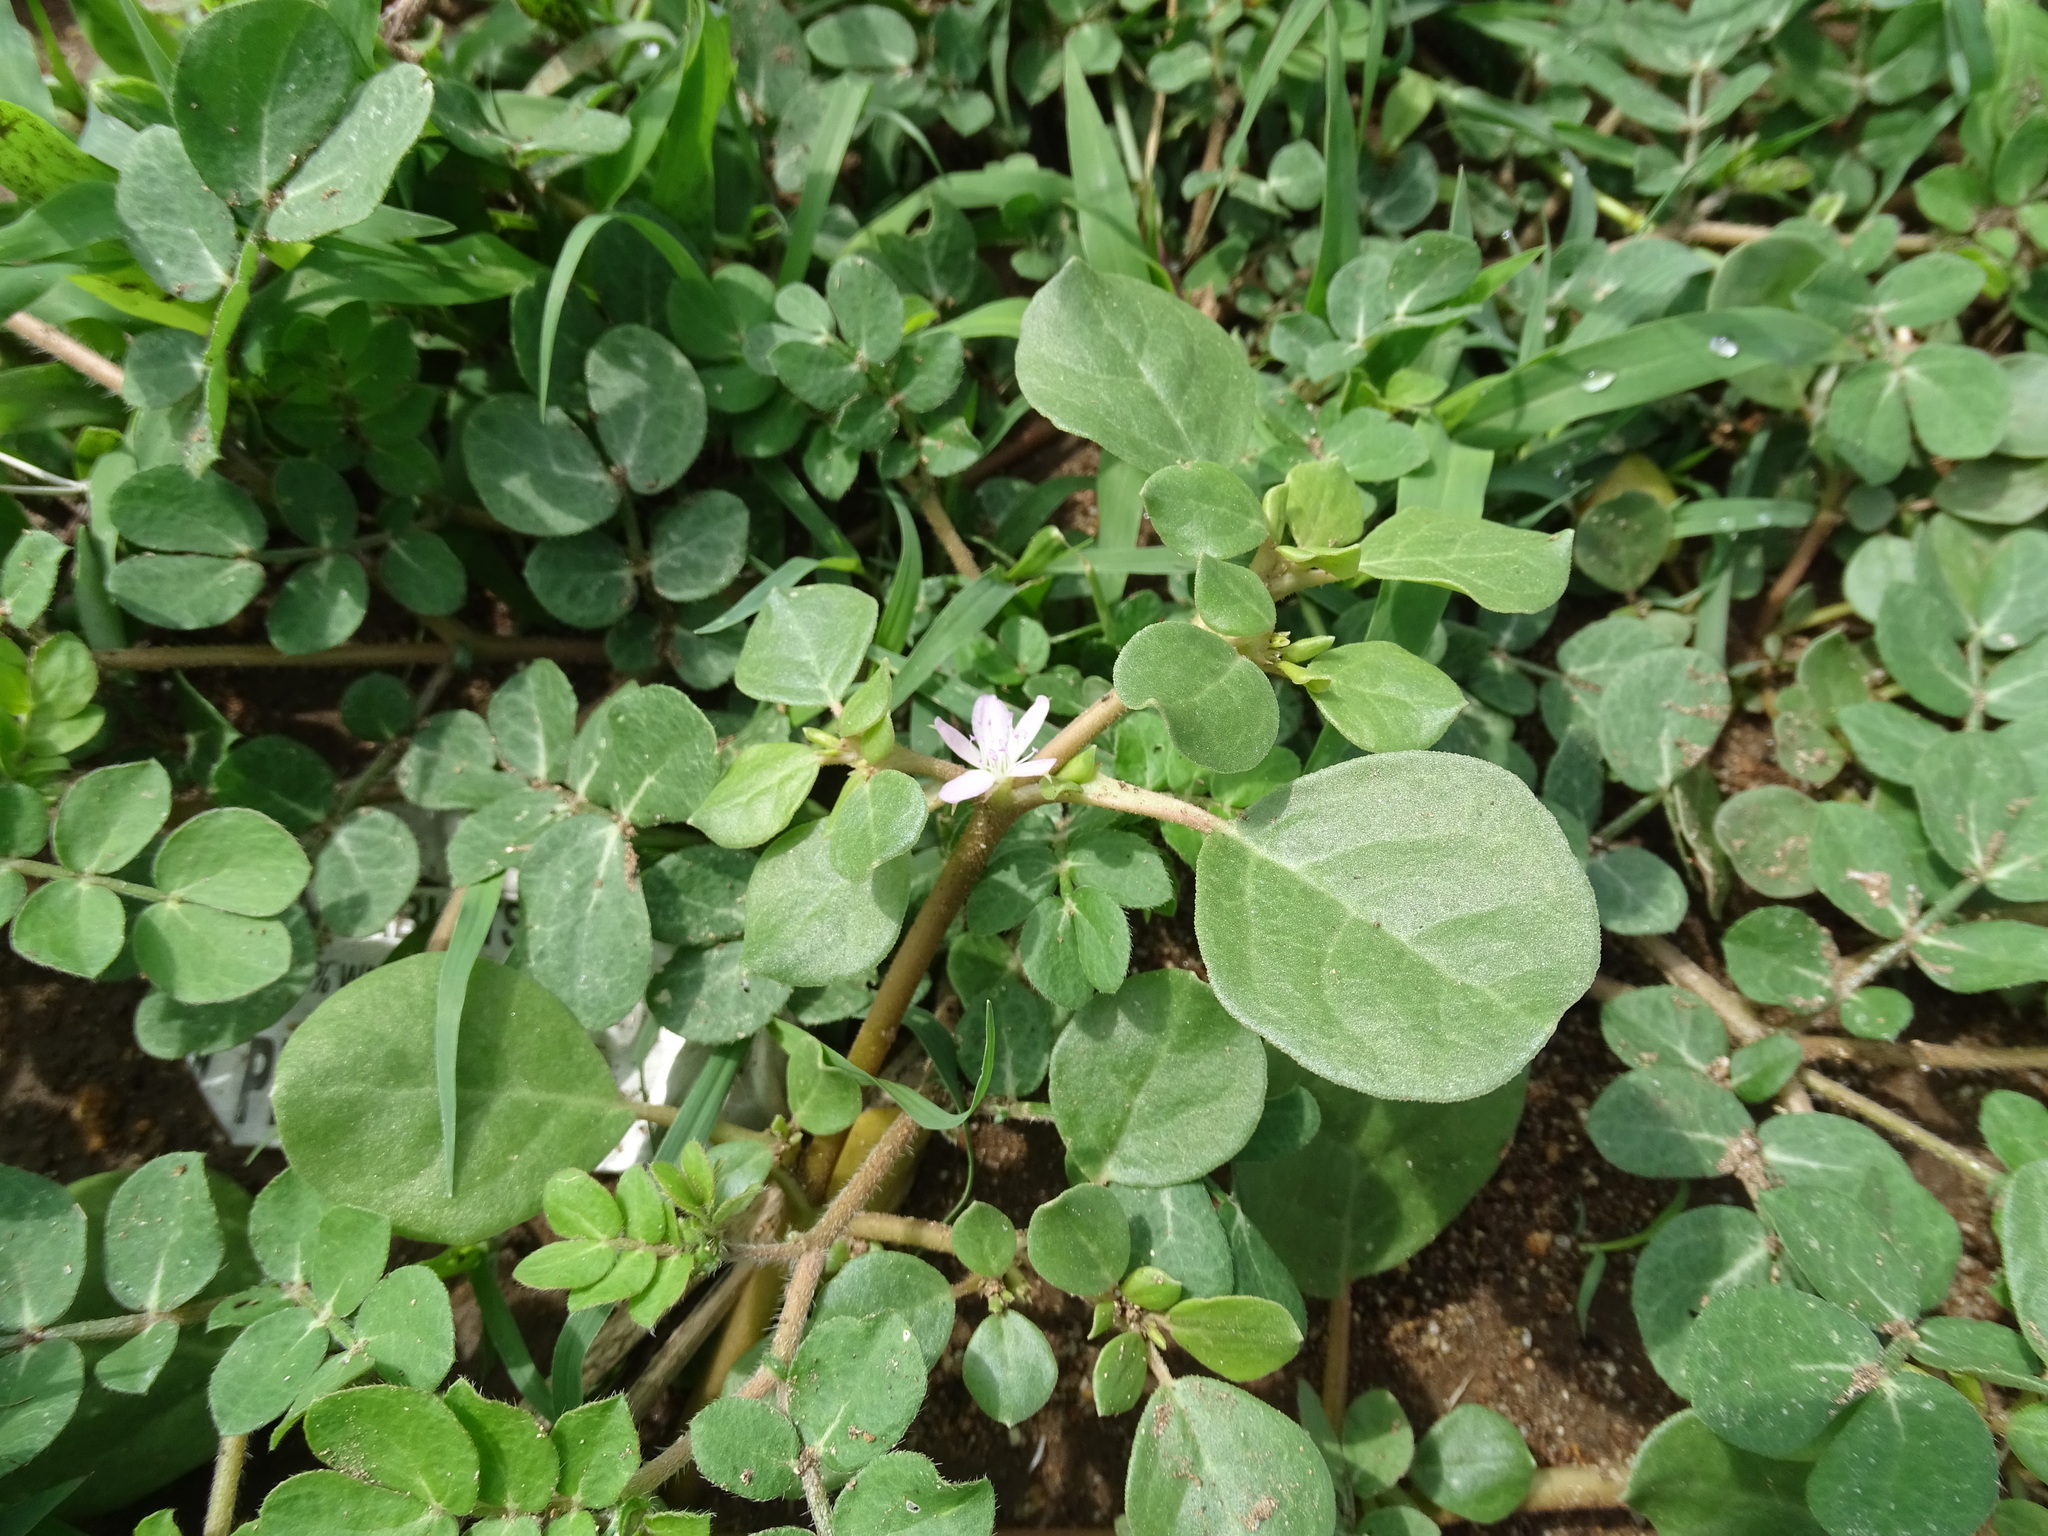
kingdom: Plantae
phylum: Tracheophyta
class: Magnoliopsida
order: Caryophyllales
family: Aizoaceae
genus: Trianthema
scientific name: Trianthema portulacastrum
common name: Desert horsepurslane
